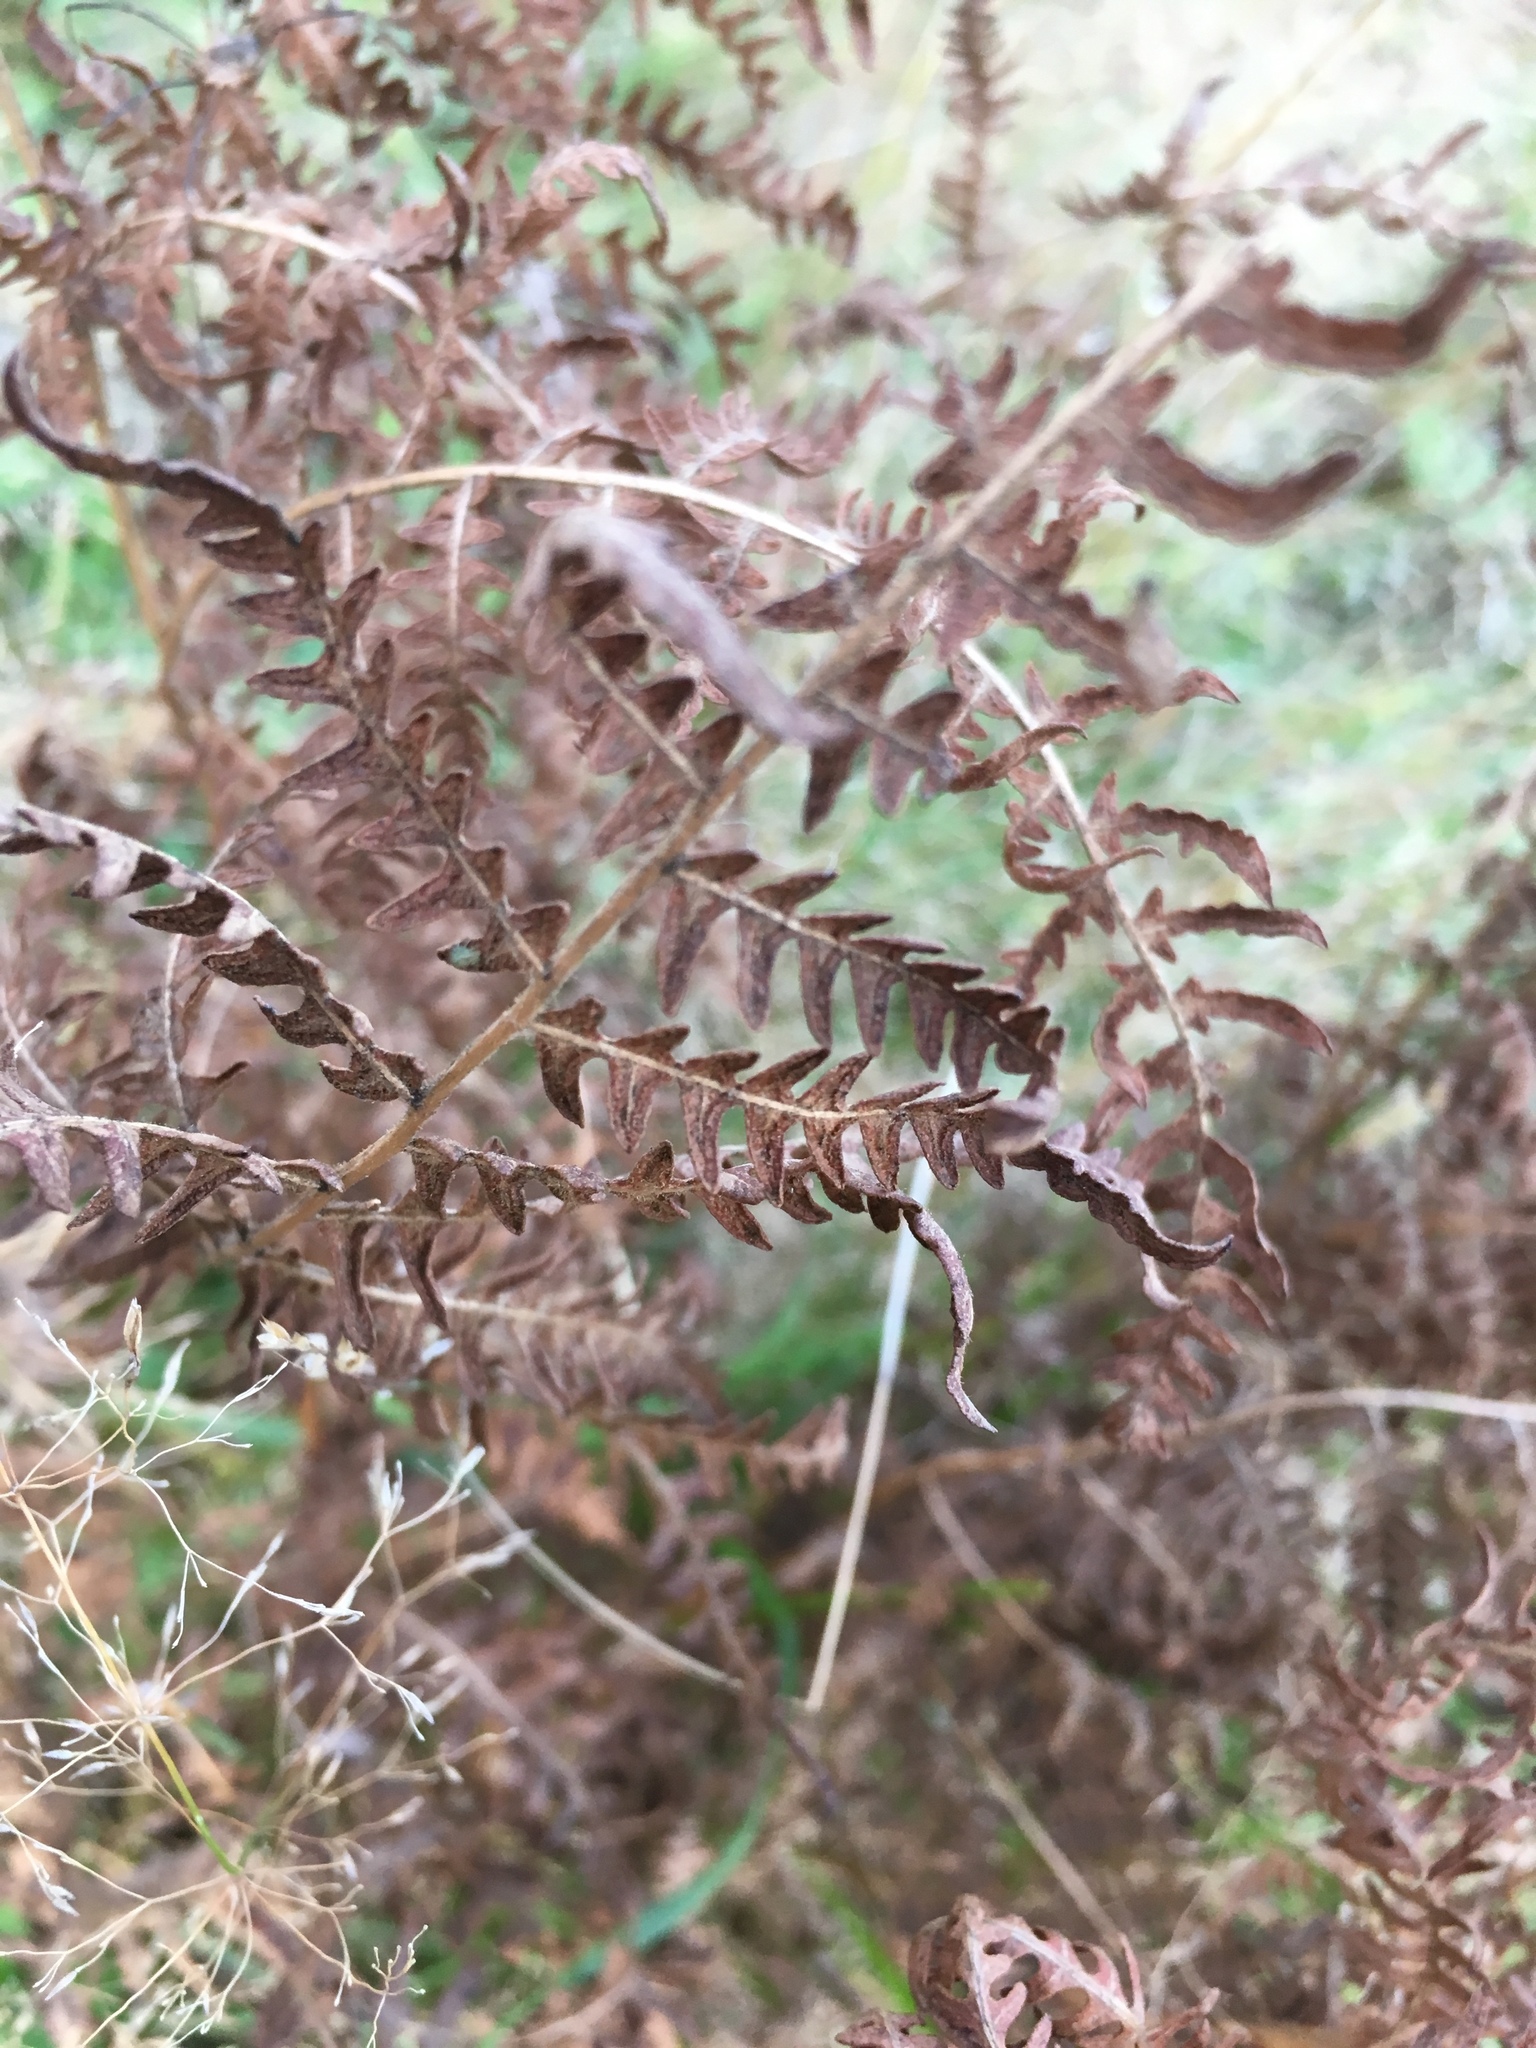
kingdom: Plantae
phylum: Tracheophyta
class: Polypodiopsida
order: Polypodiales
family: Dennstaedtiaceae
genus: Pteridium
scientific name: Pteridium aquilinum
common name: Bracken
